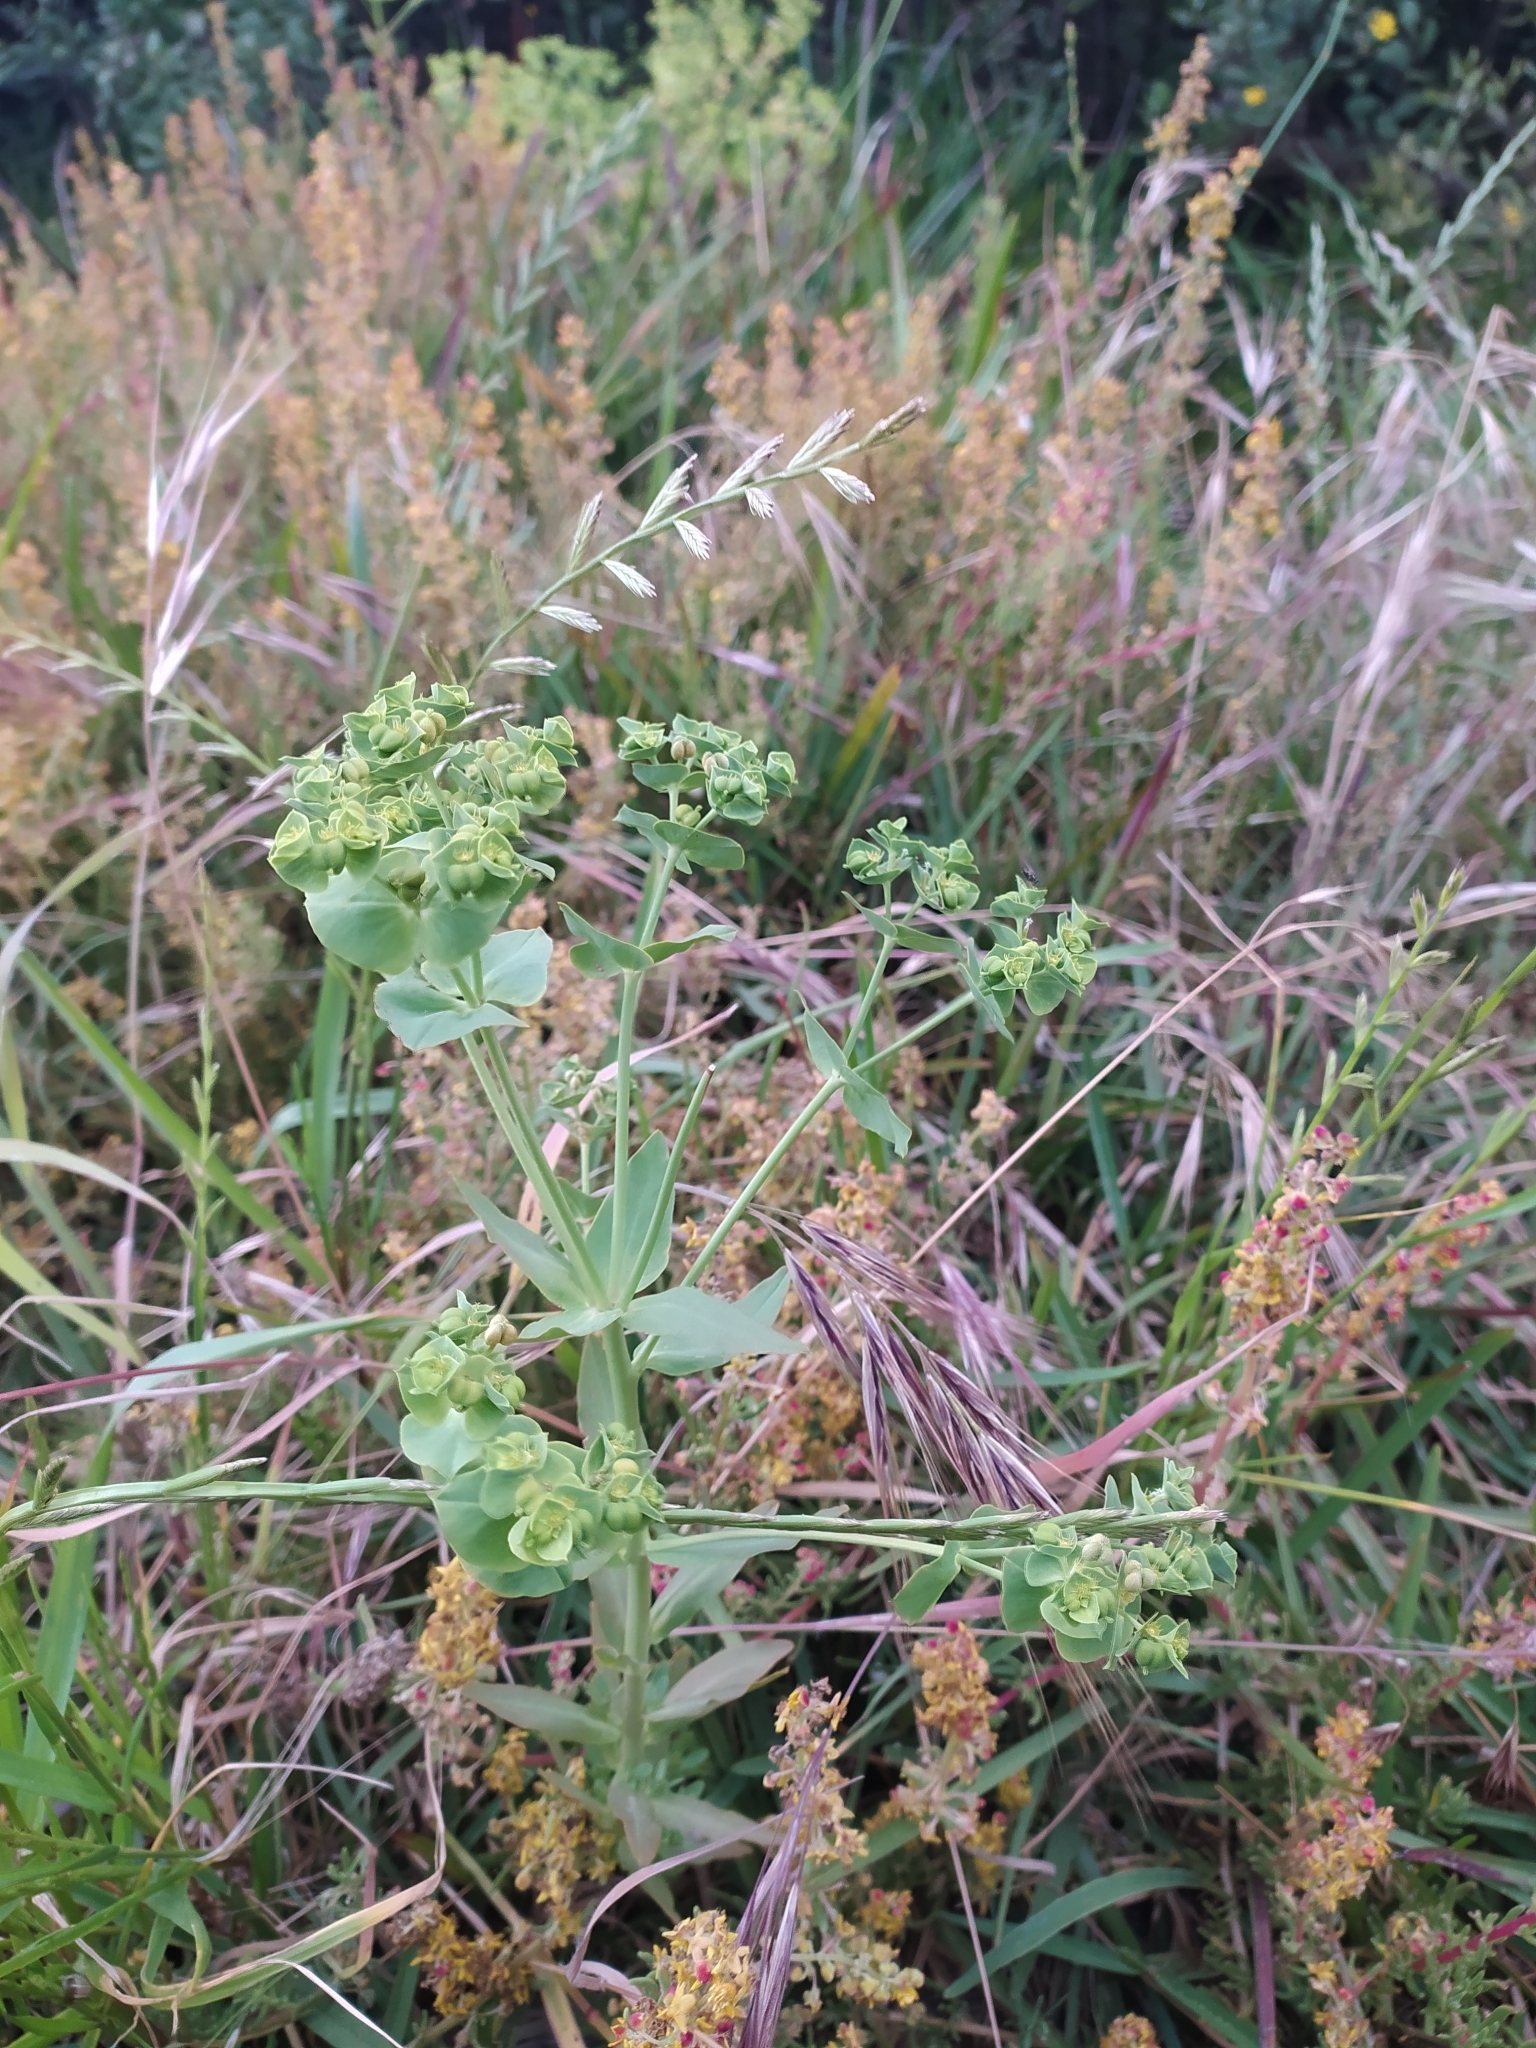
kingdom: Plantae
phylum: Tracheophyta
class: Magnoliopsida
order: Malpighiales
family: Euphorbiaceae
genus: Euphorbia
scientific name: Euphorbia terracina
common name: Geraldton carnation weed
